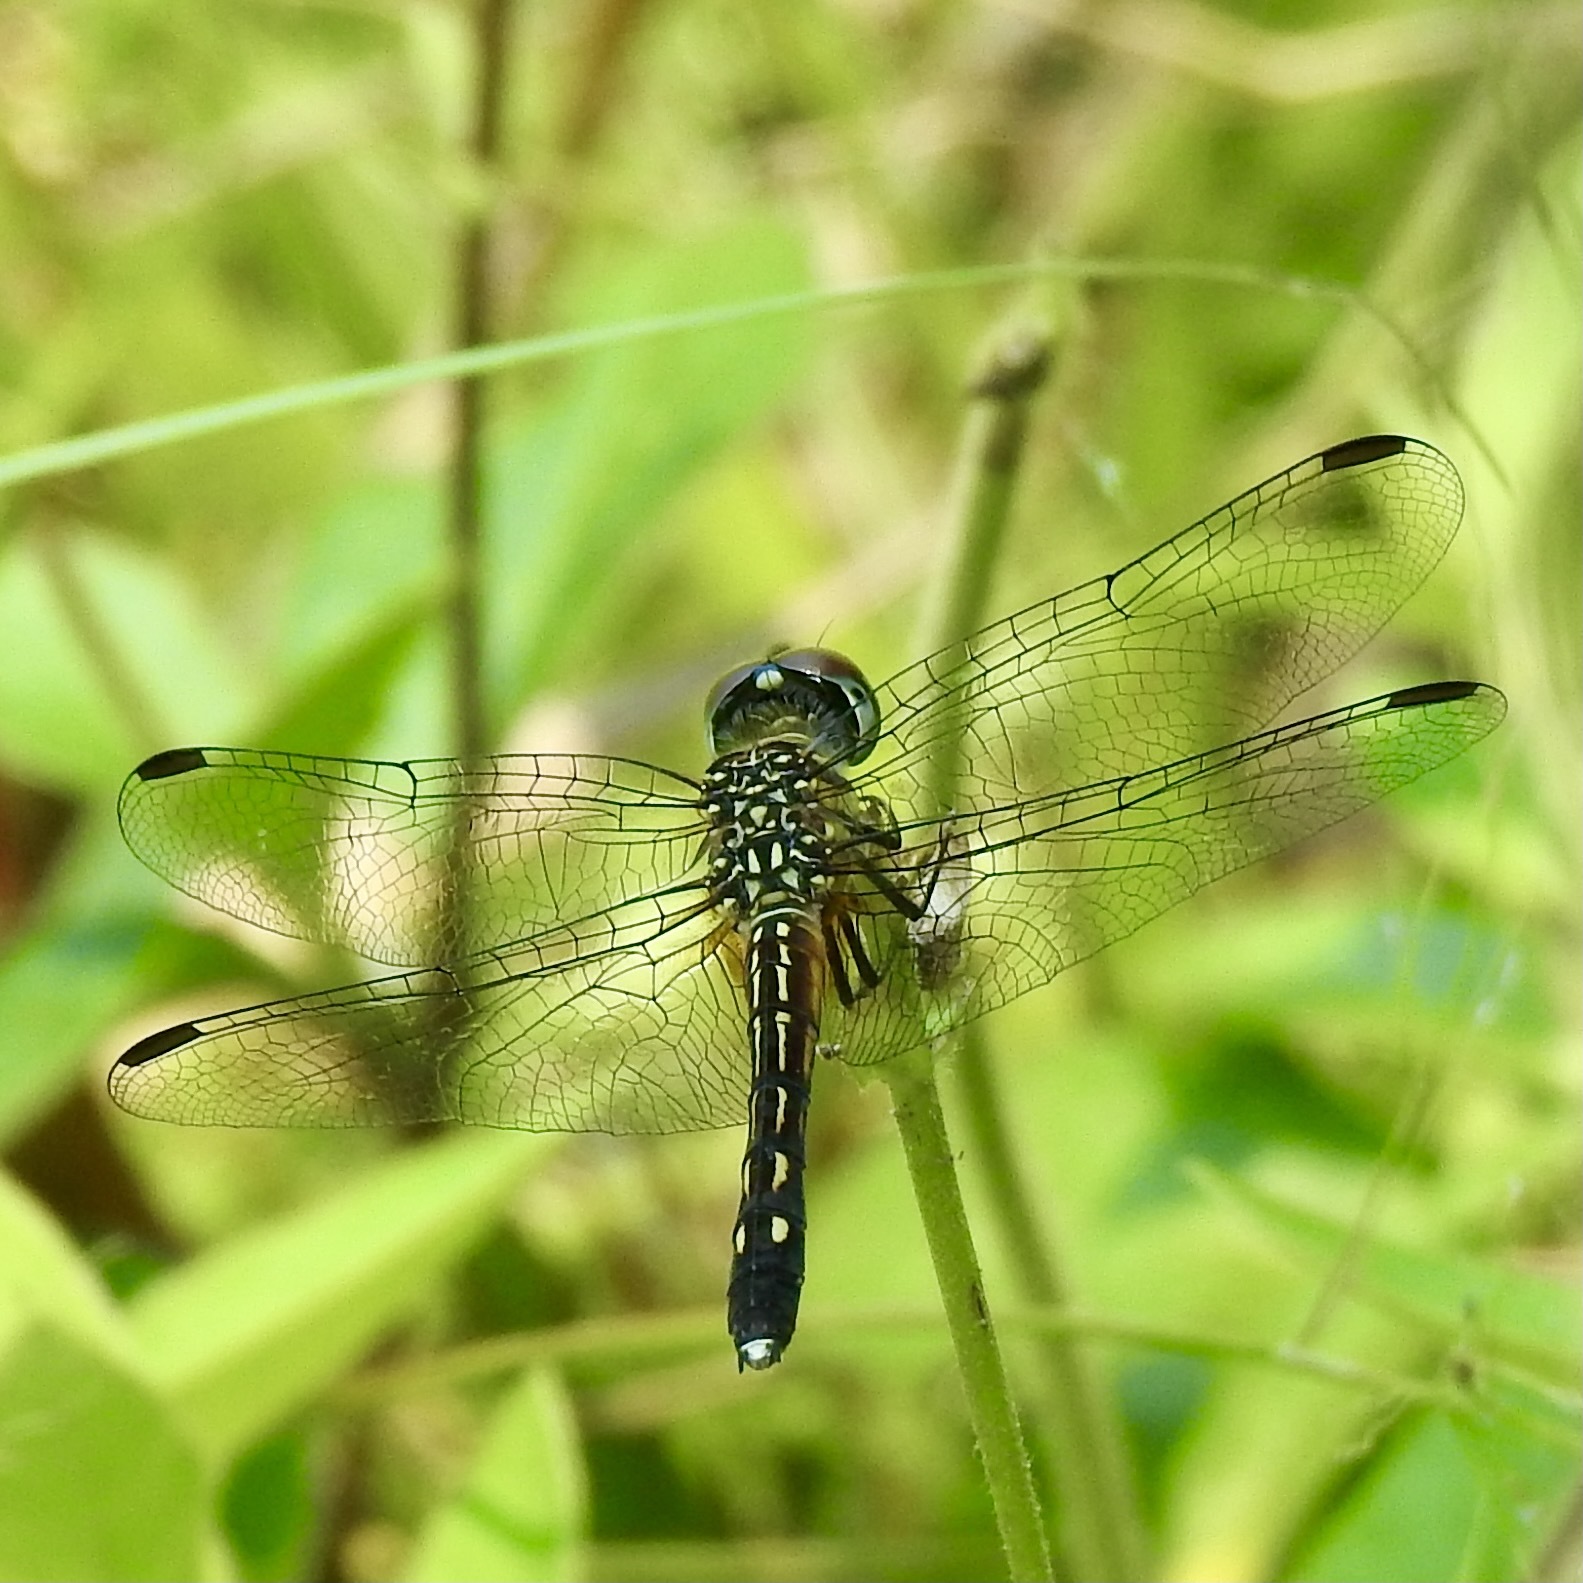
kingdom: Animalia
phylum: Arthropoda
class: Insecta
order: Odonata
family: Libellulidae
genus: Pachydiplax
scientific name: Pachydiplax longipennis
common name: Blue dasher
